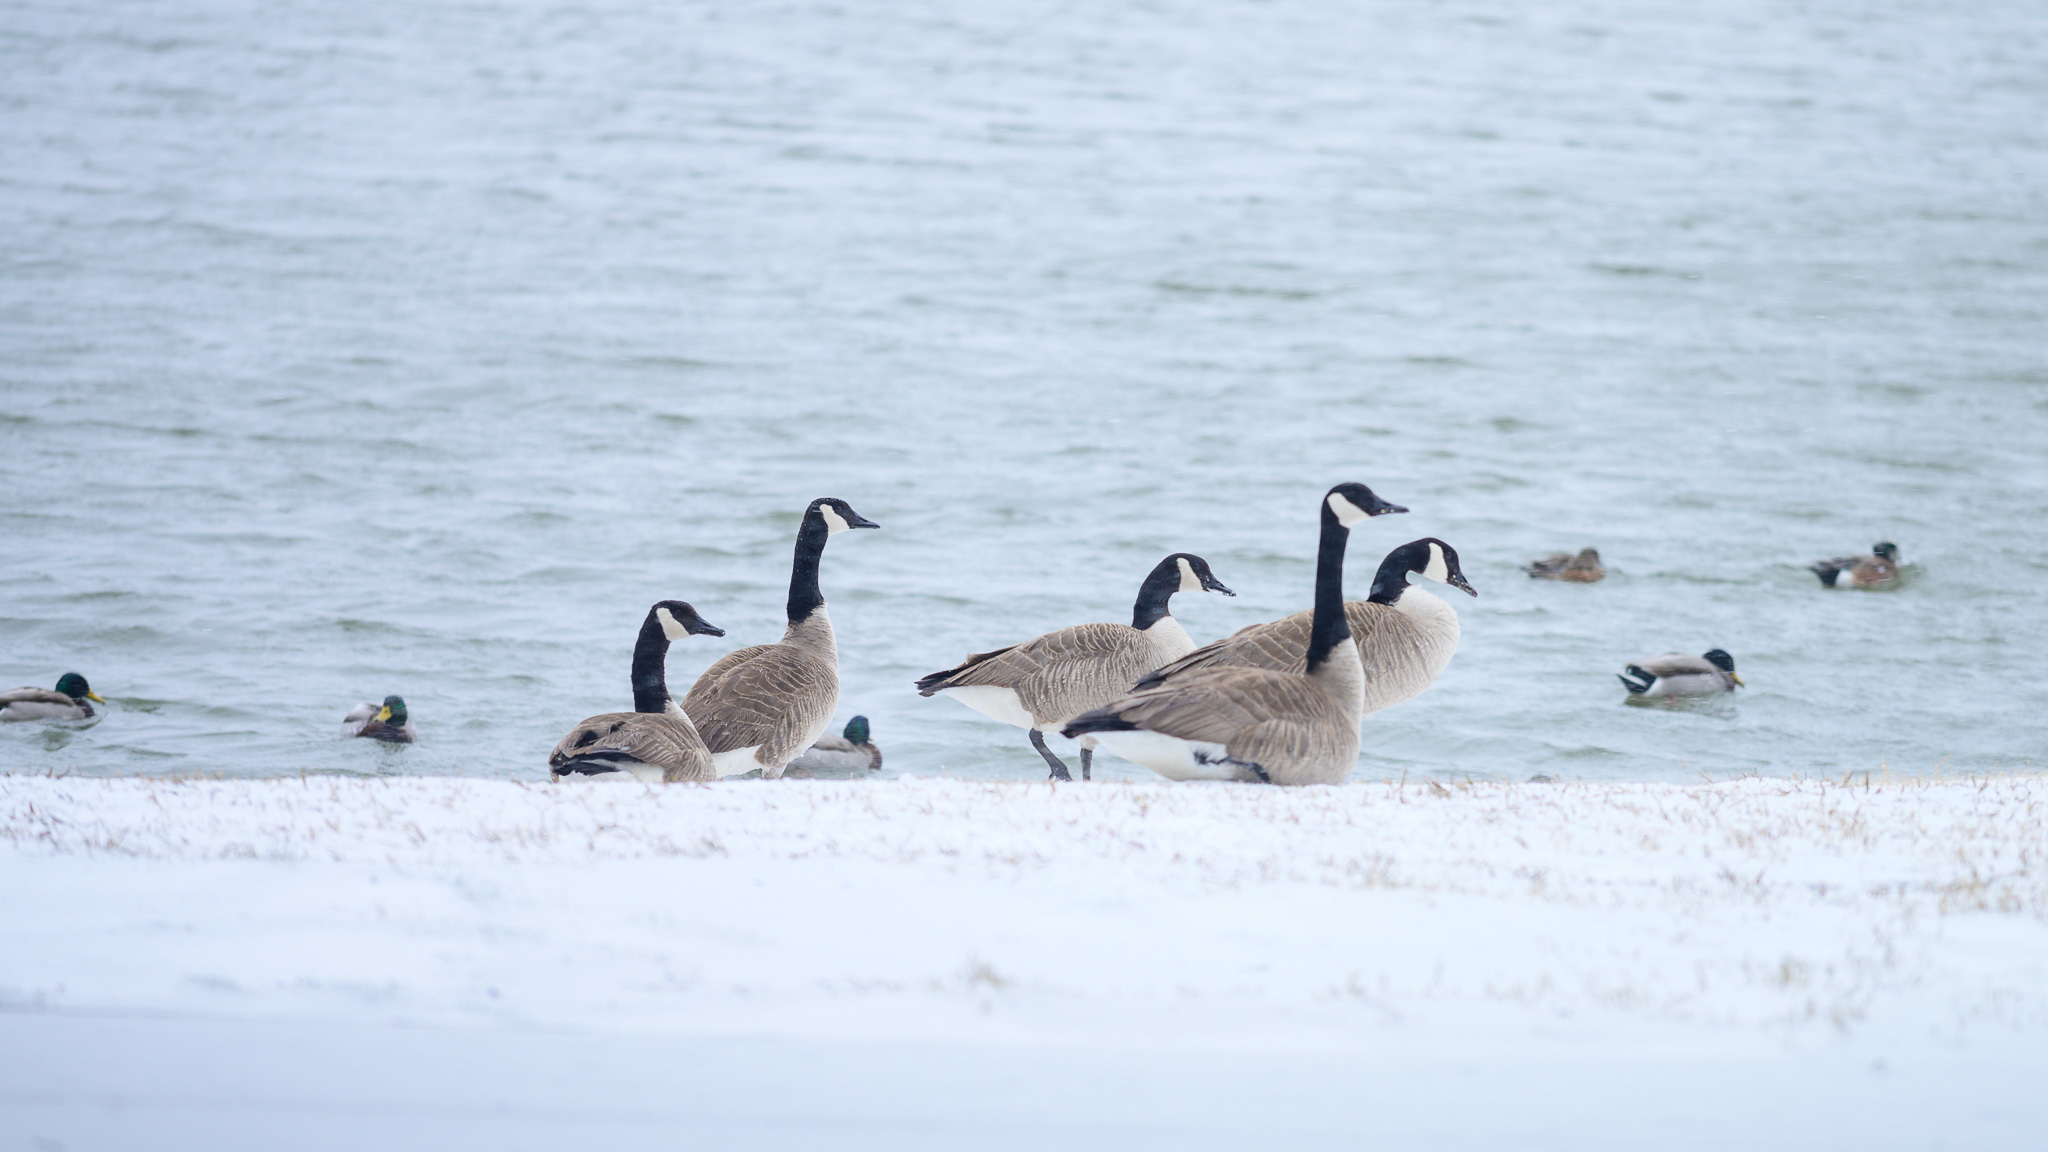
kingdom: Animalia
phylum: Chordata
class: Aves
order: Anseriformes
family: Anatidae
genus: Branta
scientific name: Branta canadensis
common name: Canada goose
